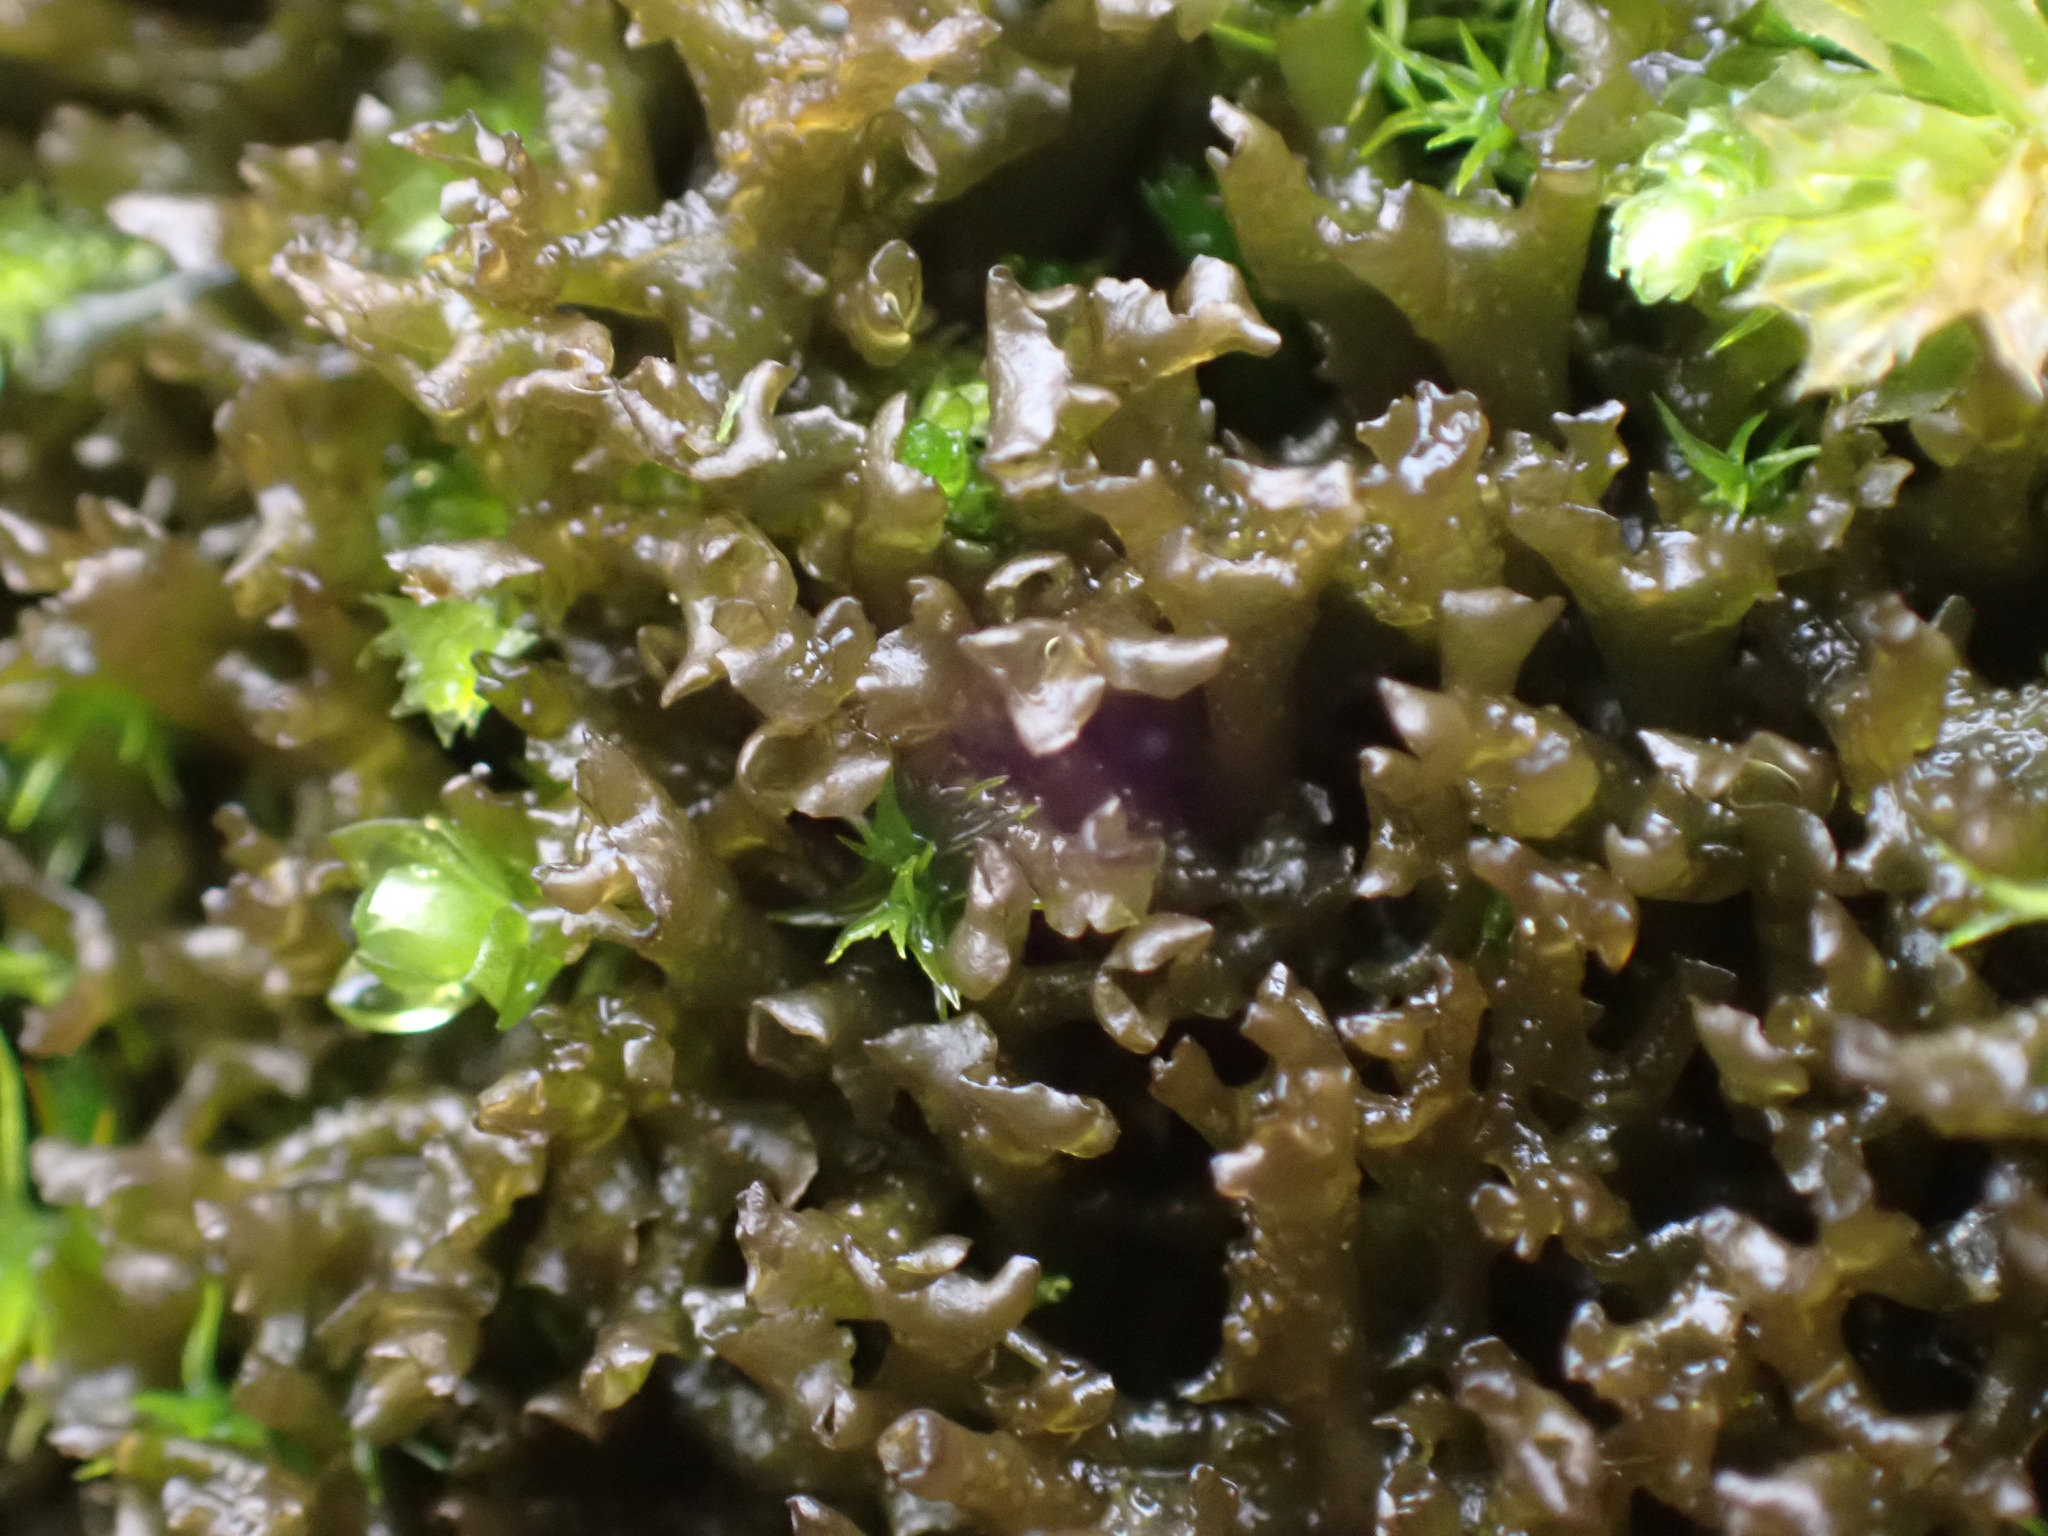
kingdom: Fungi
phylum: Ascomycota
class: Lecanoromycetes
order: Peltigerales
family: Collemataceae
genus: Scytinium
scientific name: Scytinium palmatum
